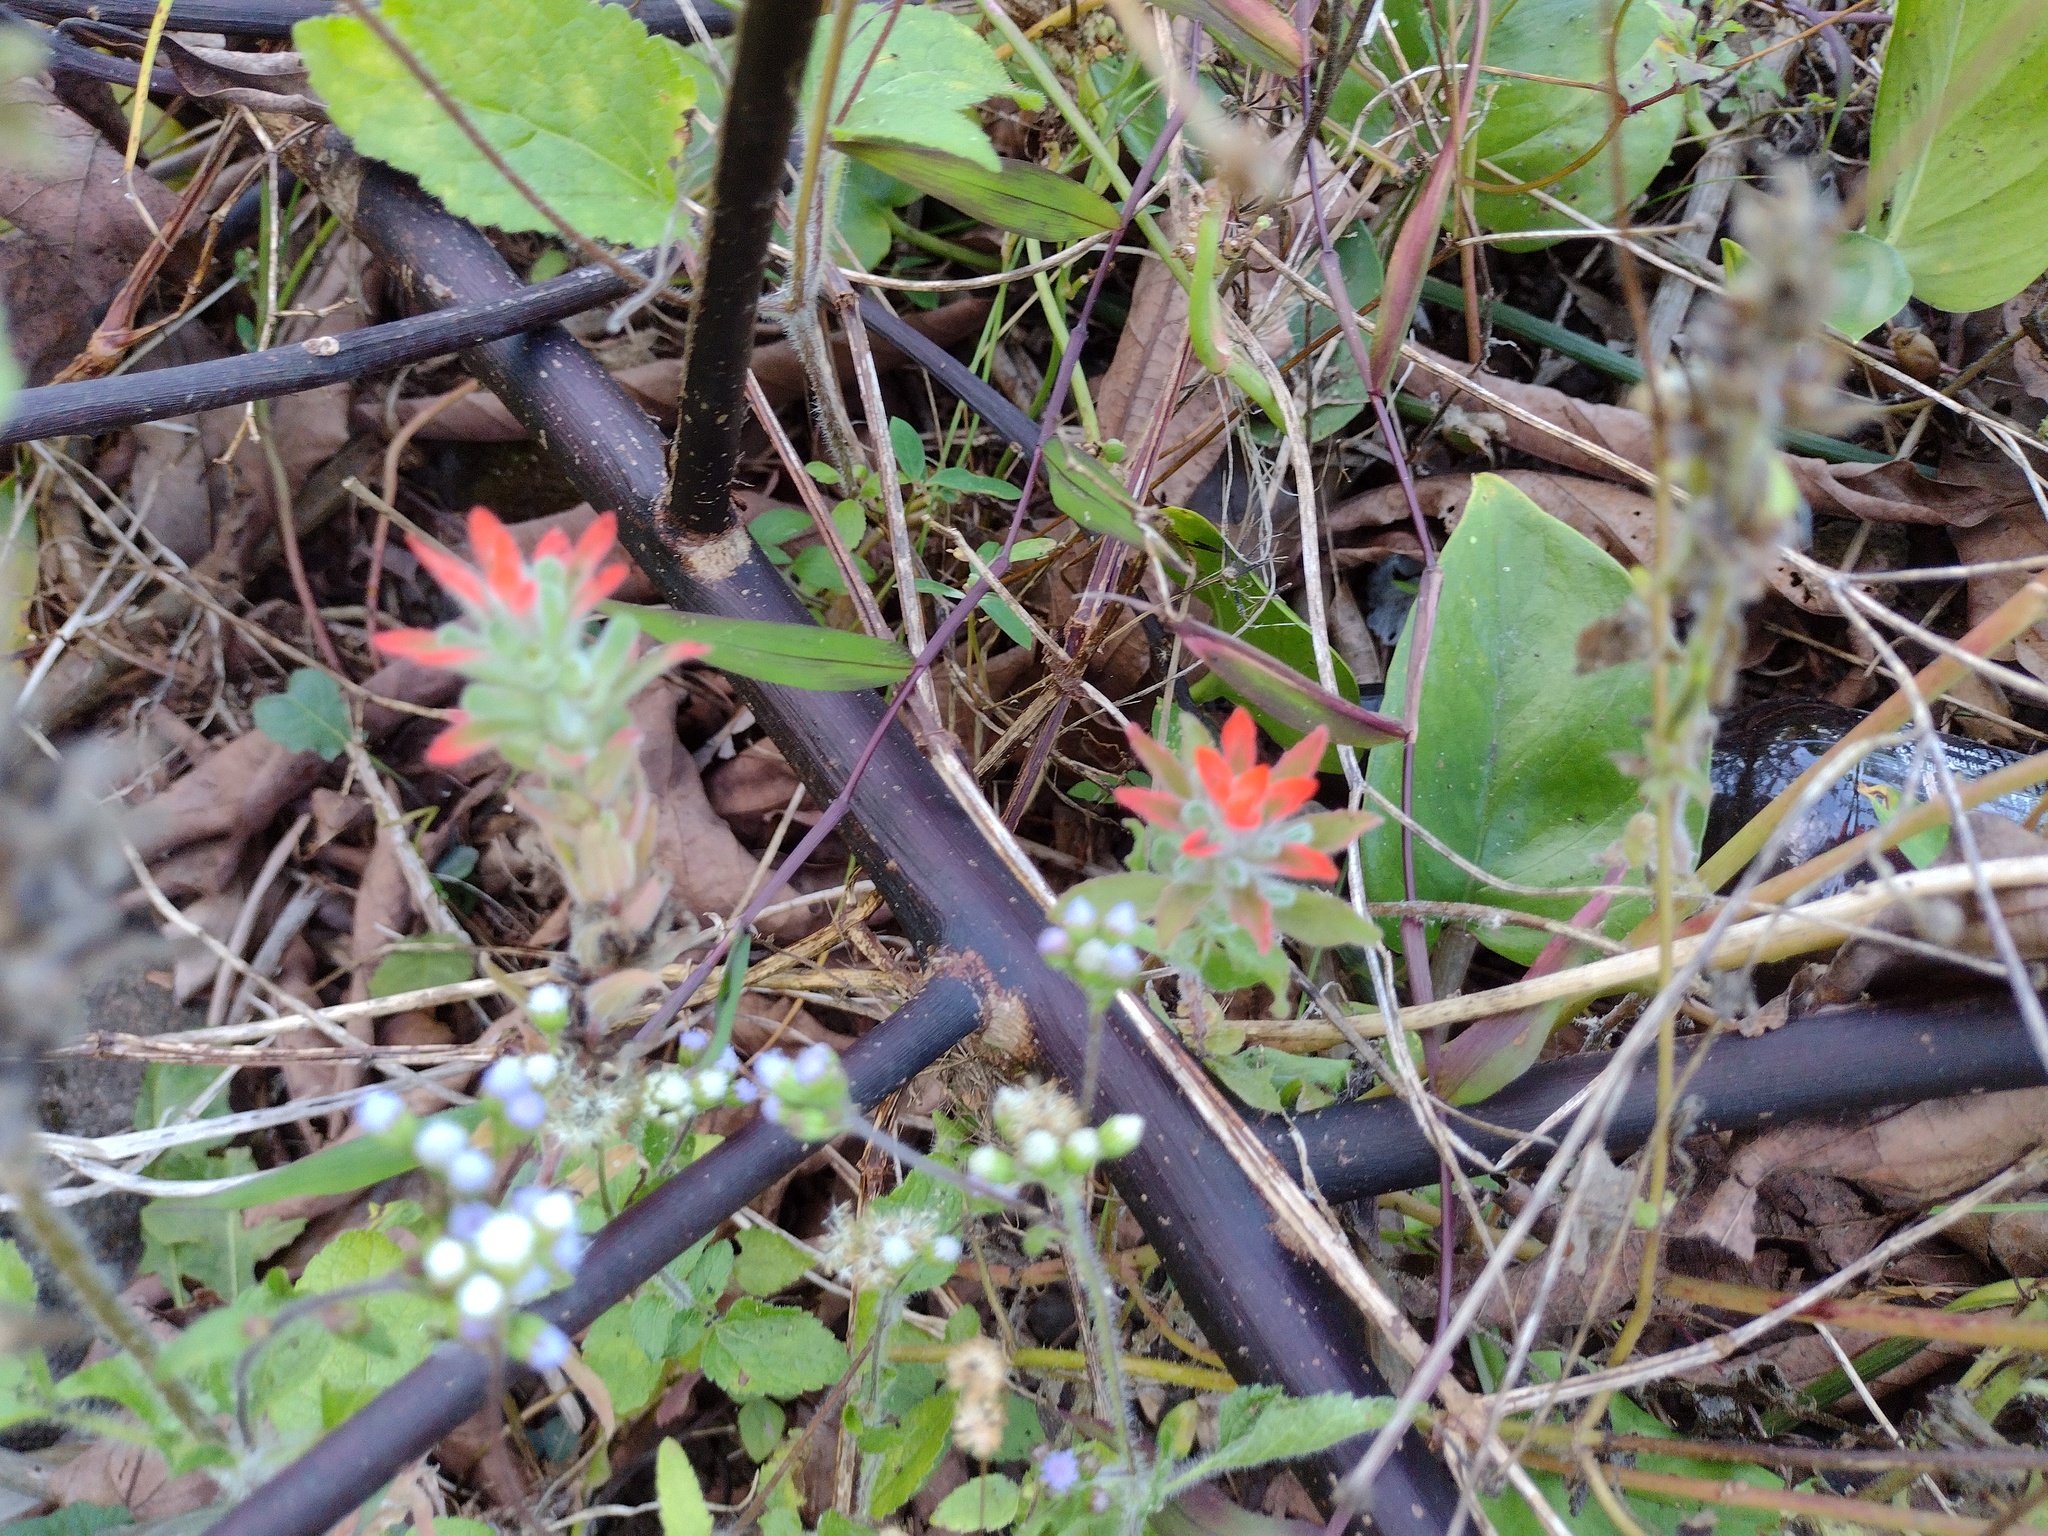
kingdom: Plantae
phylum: Tracheophyta
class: Magnoliopsida
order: Lamiales
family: Orobanchaceae
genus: Castilleja
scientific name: Castilleja arvensis
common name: Indian paintbrush
